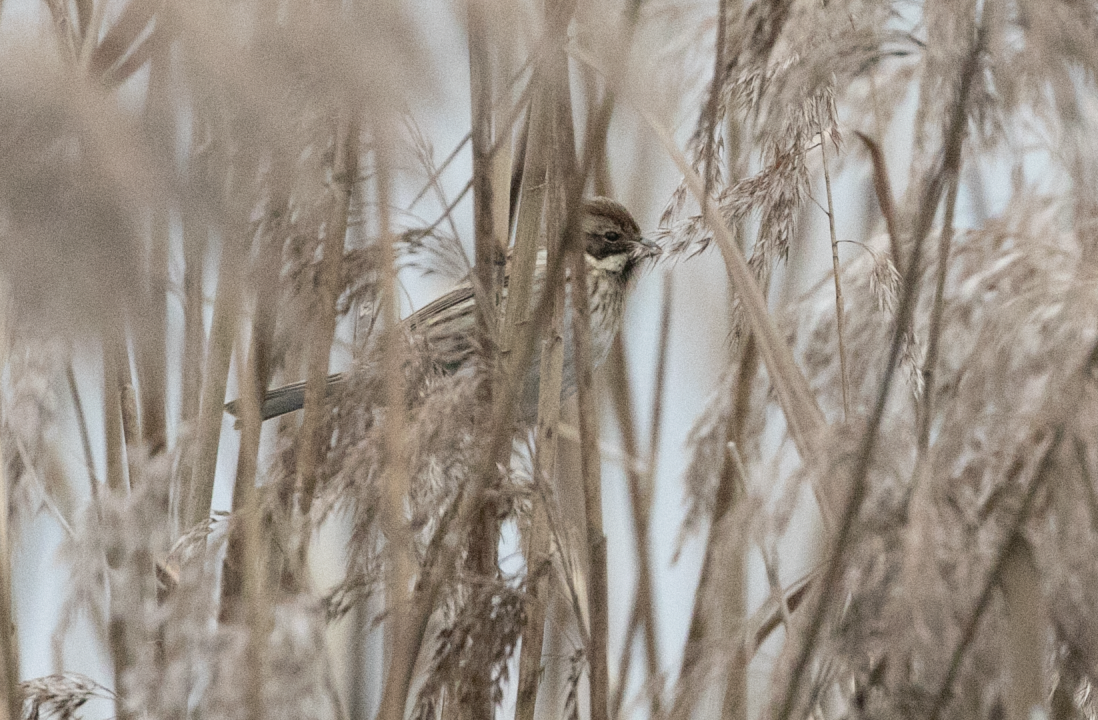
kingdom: Animalia
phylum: Chordata
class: Aves
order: Passeriformes
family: Emberizidae
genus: Emberiza
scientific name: Emberiza schoeniclus
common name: Reed bunting
